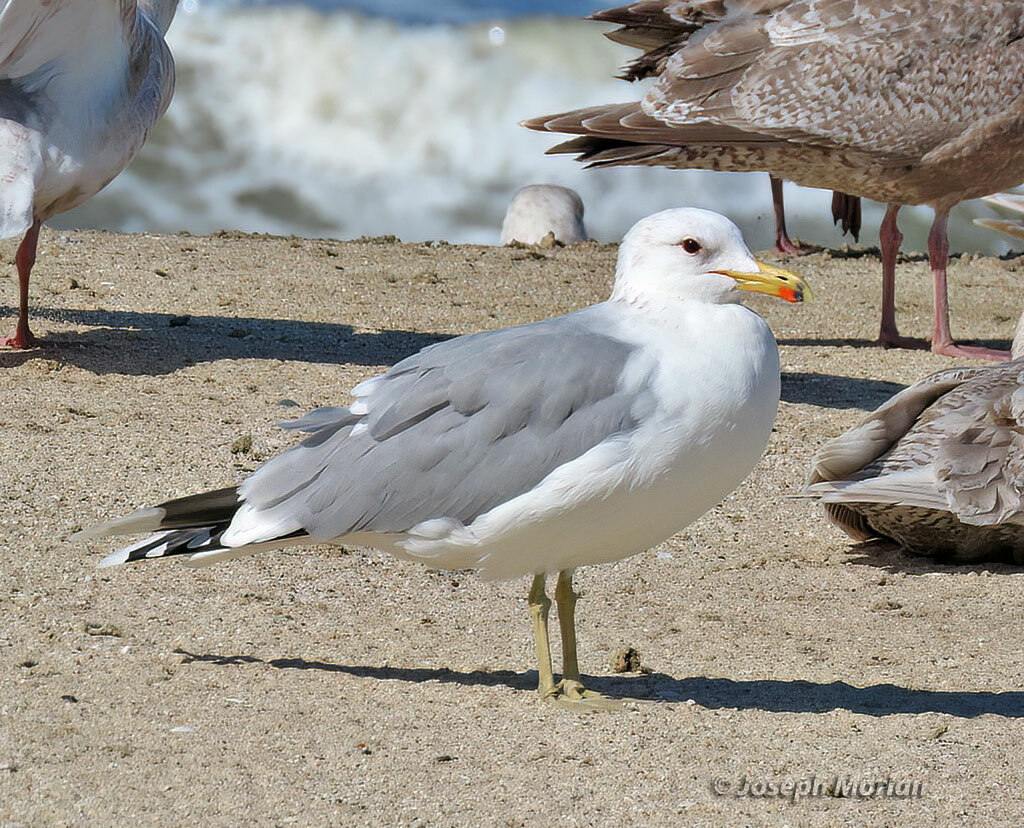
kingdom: Animalia
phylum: Chordata
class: Aves
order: Charadriiformes
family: Laridae
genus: Larus
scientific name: Larus californicus
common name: California gull
